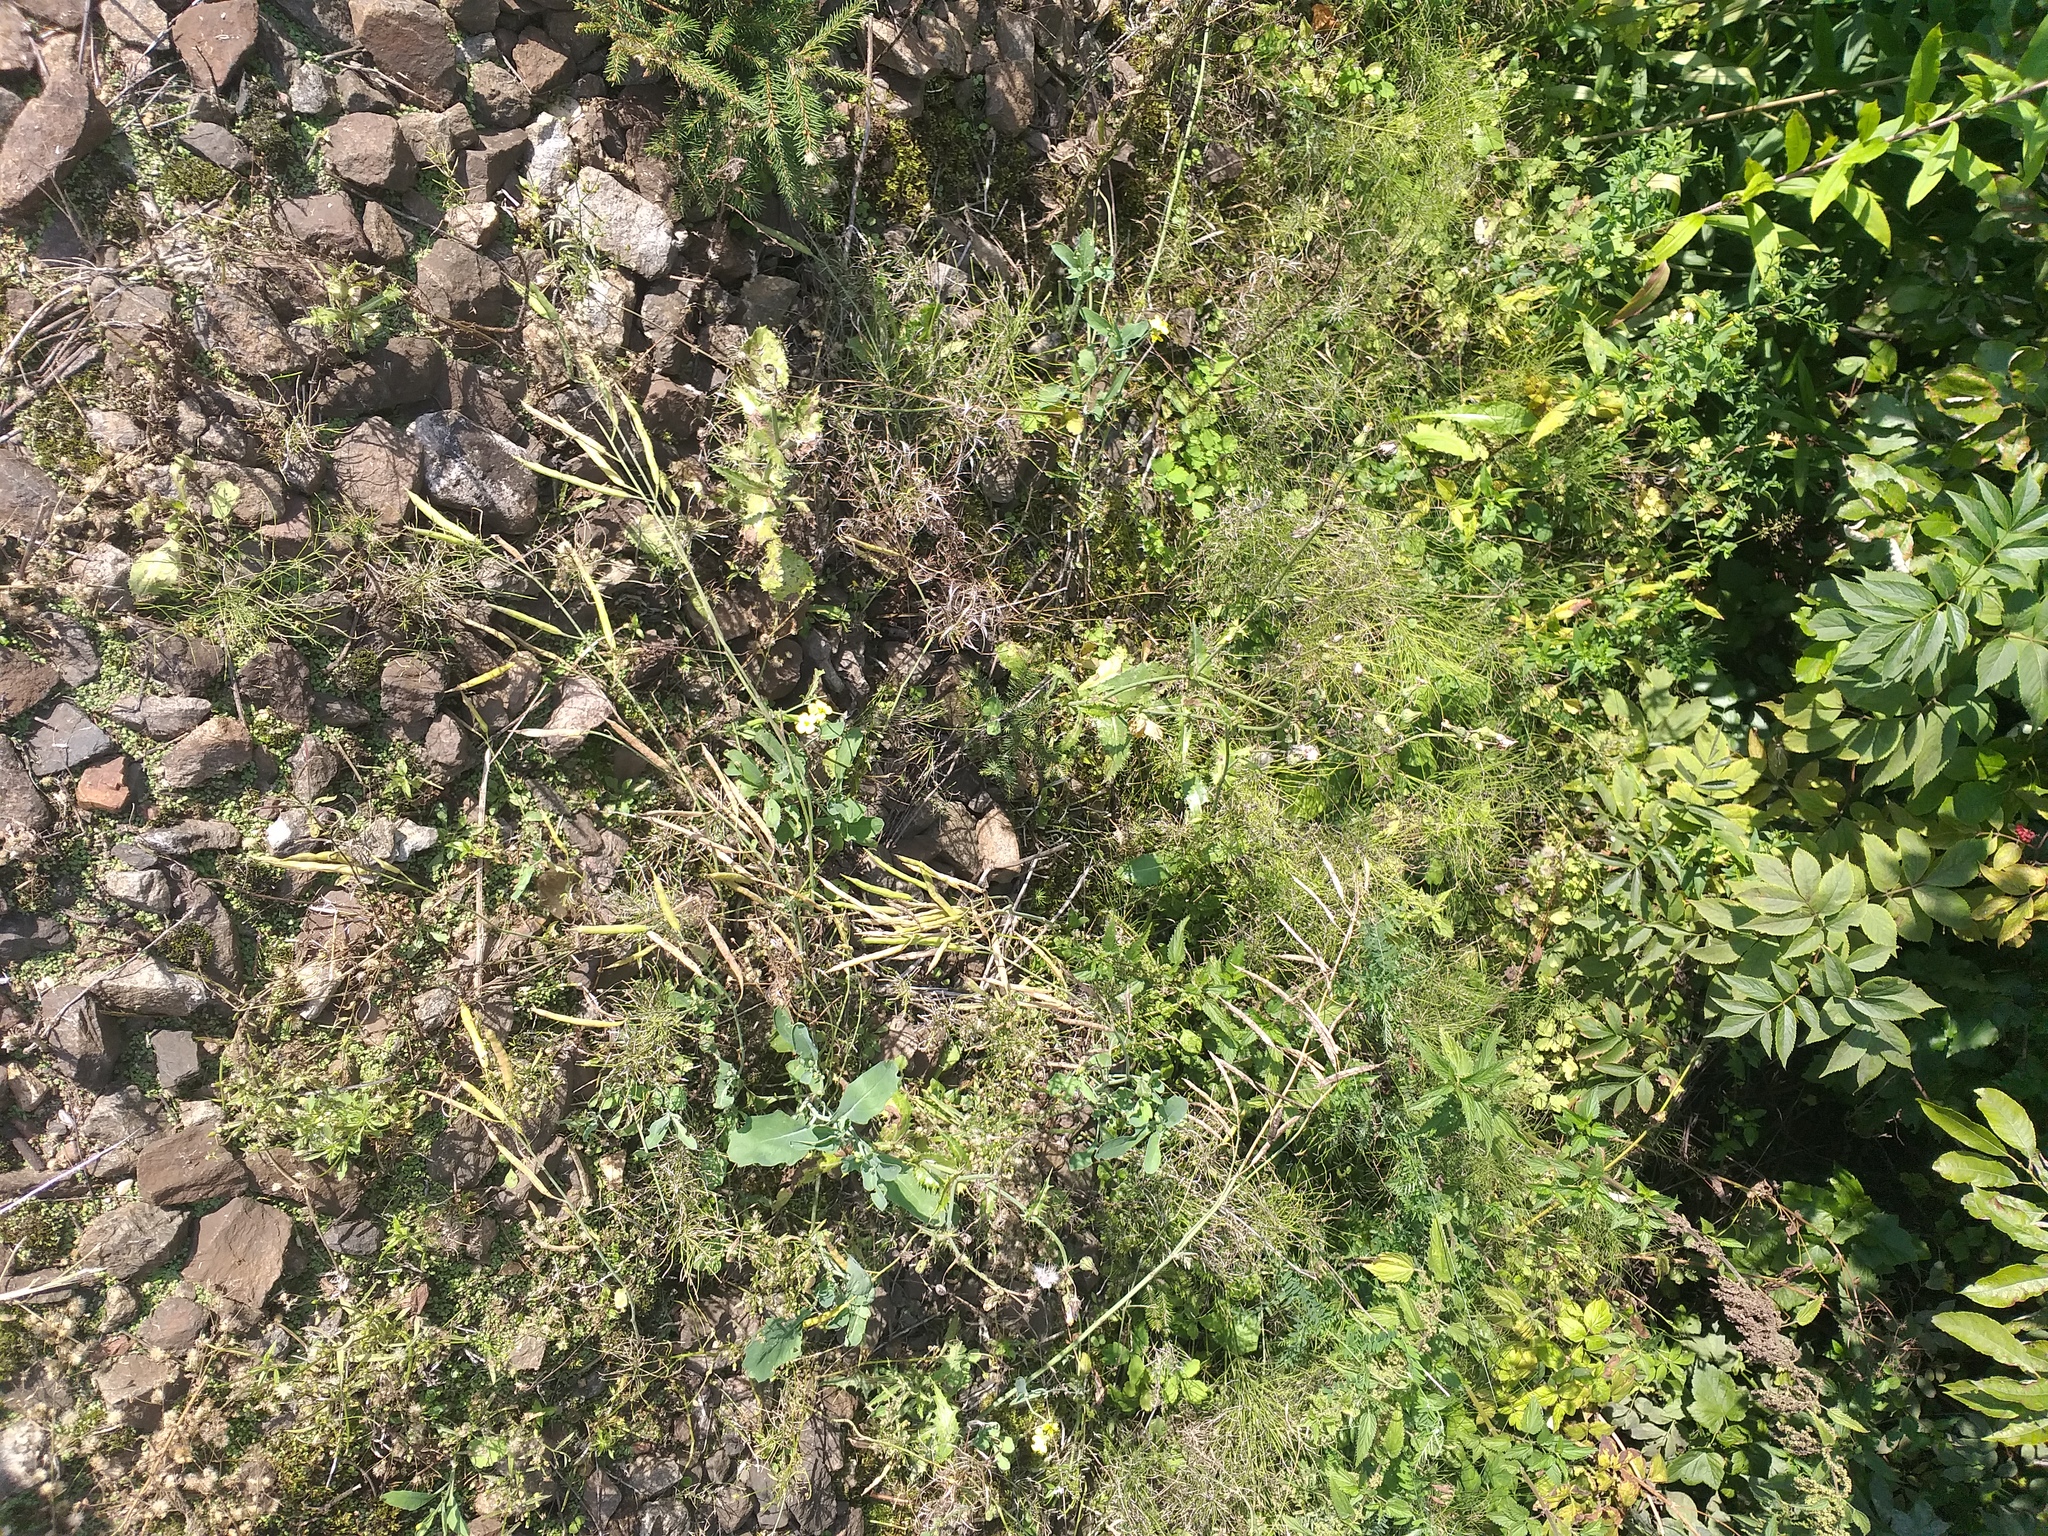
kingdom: Plantae
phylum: Tracheophyta
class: Magnoliopsida
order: Brassicales
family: Brassicaceae
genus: Brassica
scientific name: Brassica napus
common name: Rape
